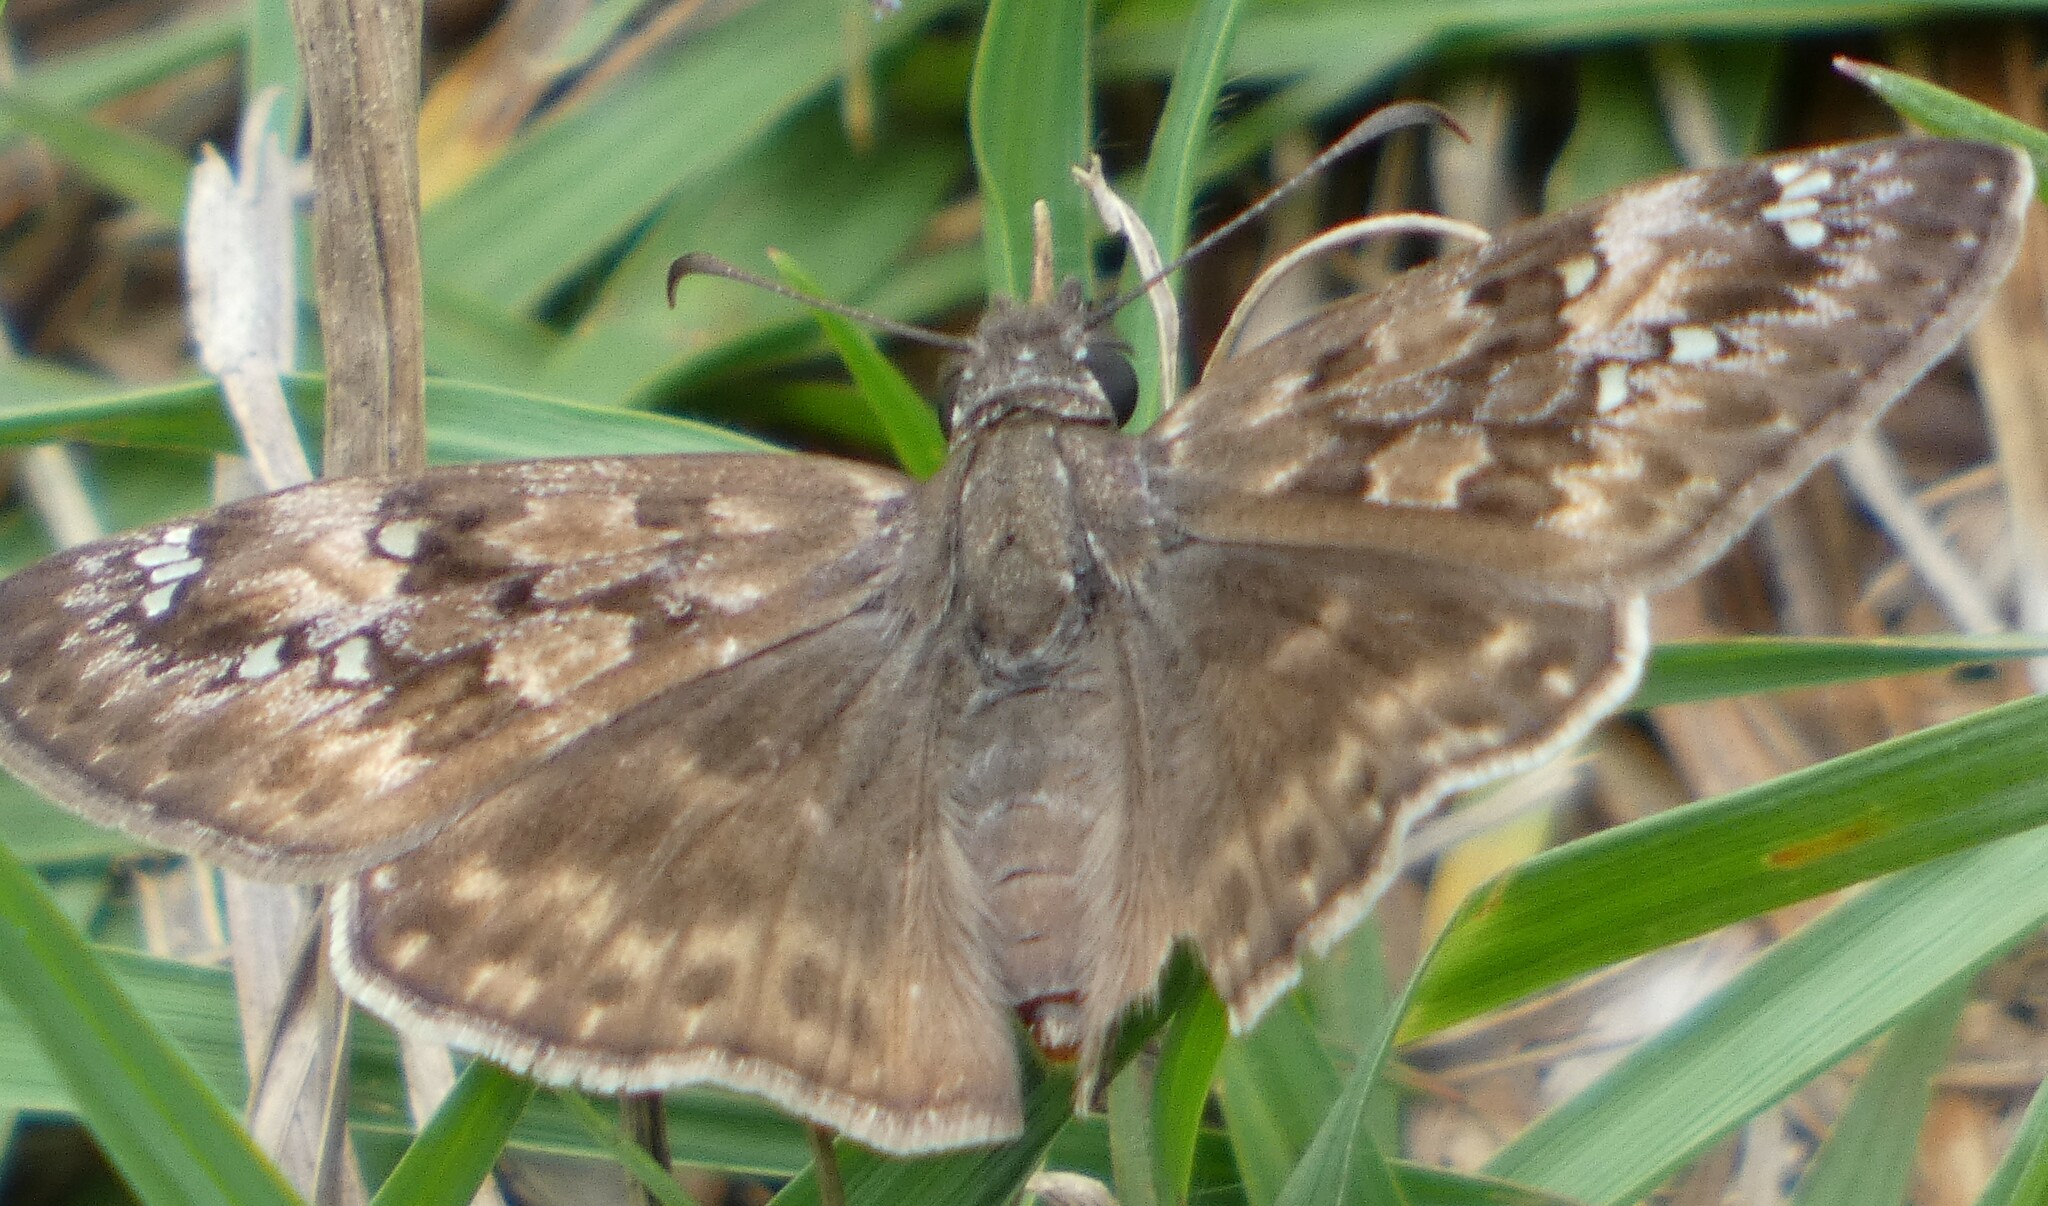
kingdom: Animalia
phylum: Arthropoda
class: Insecta
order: Lepidoptera
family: Hesperiidae
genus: Erynnis
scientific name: Erynnis horatius
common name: Horace's duskywing
